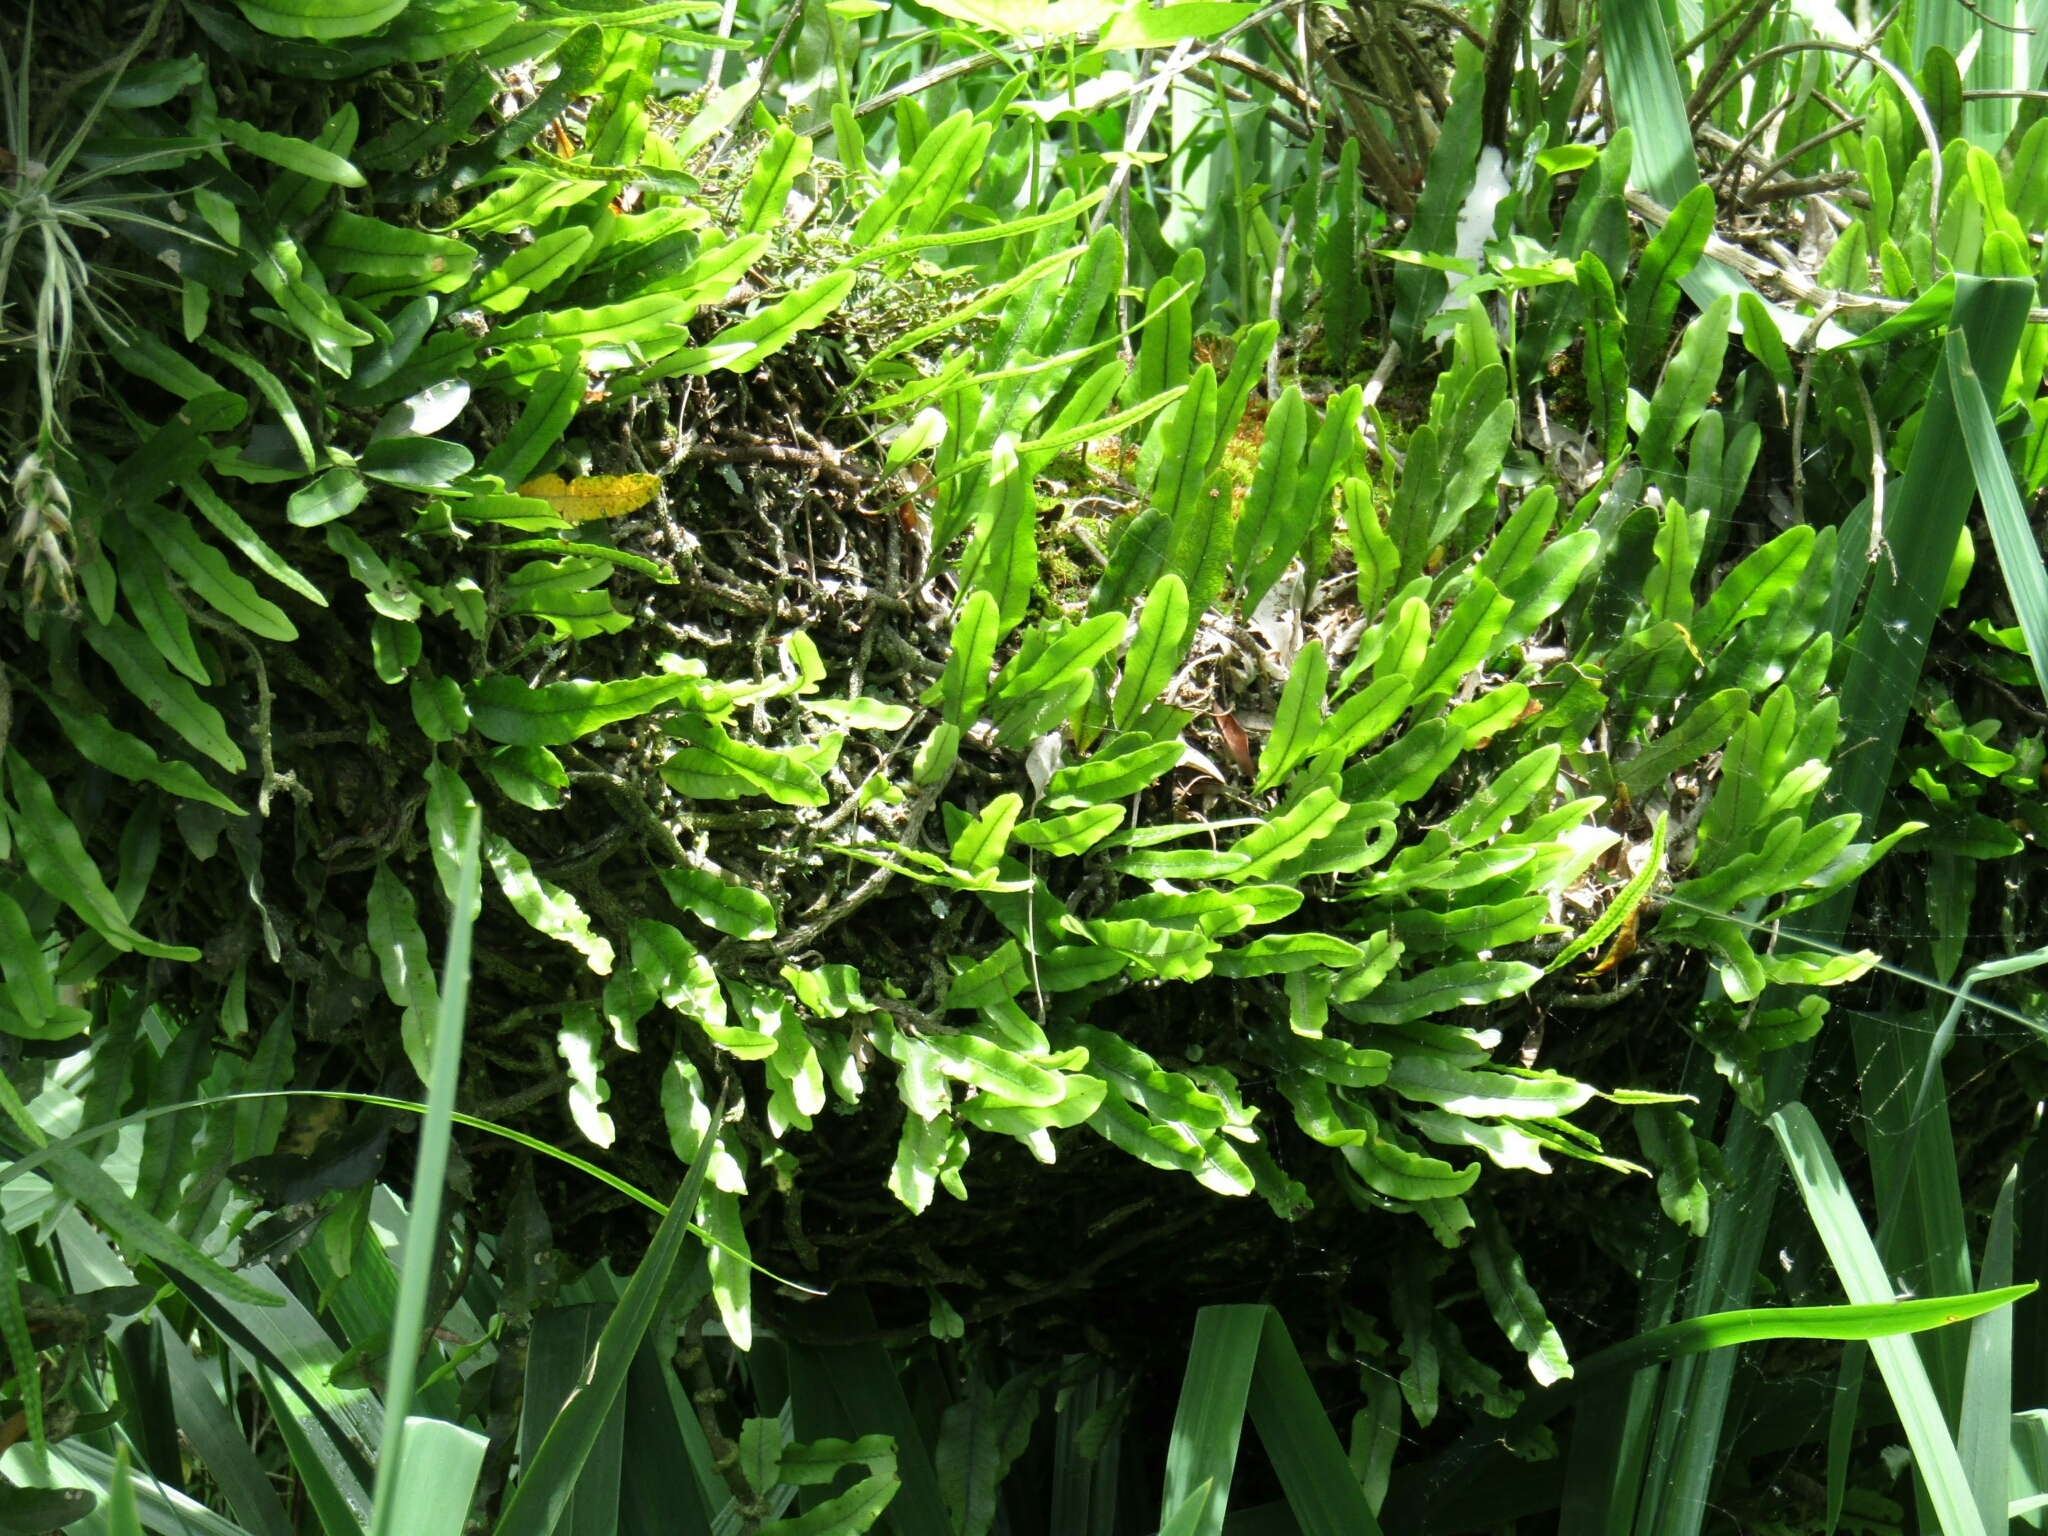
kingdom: Plantae
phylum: Tracheophyta
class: Polypodiopsida
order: Polypodiales
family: Polypodiaceae
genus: Microgramma
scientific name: Microgramma mortoniana
